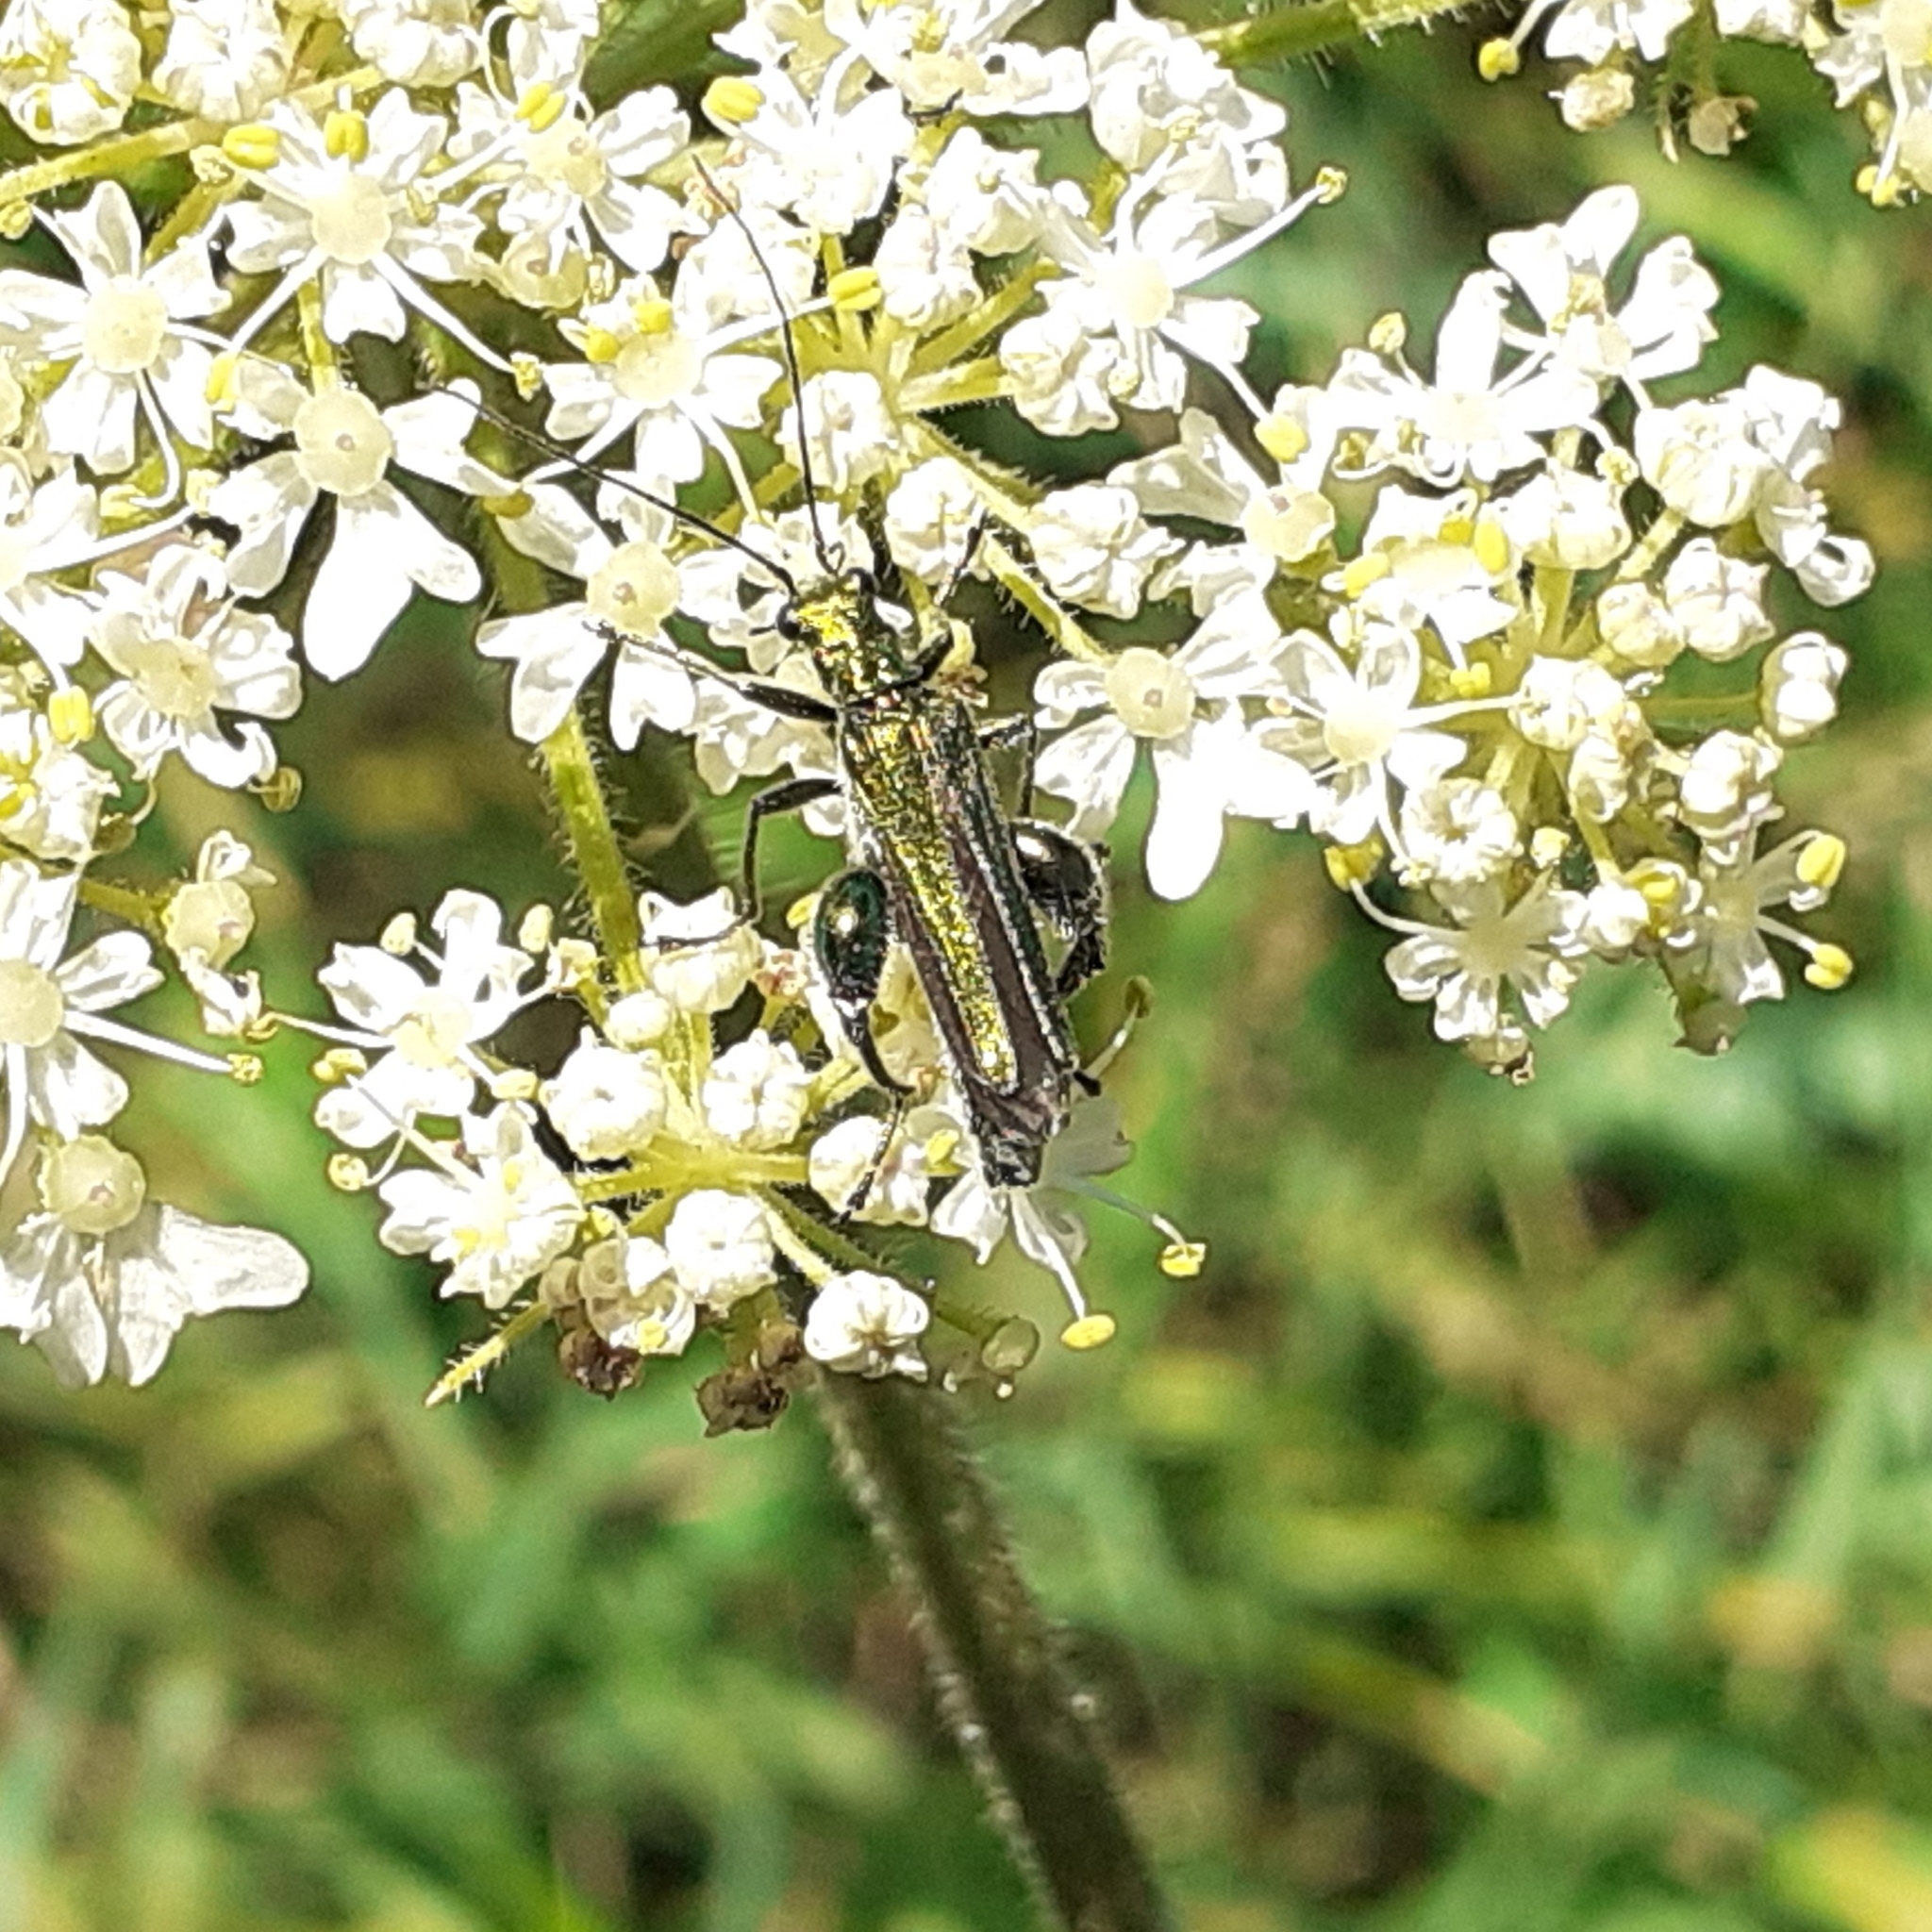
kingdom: Animalia
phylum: Arthropoda
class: Insecta
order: Coleoptera
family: Oedemeridae
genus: Oedemera
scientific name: Oedemera nobilis
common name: Swollen-thighed beetle
